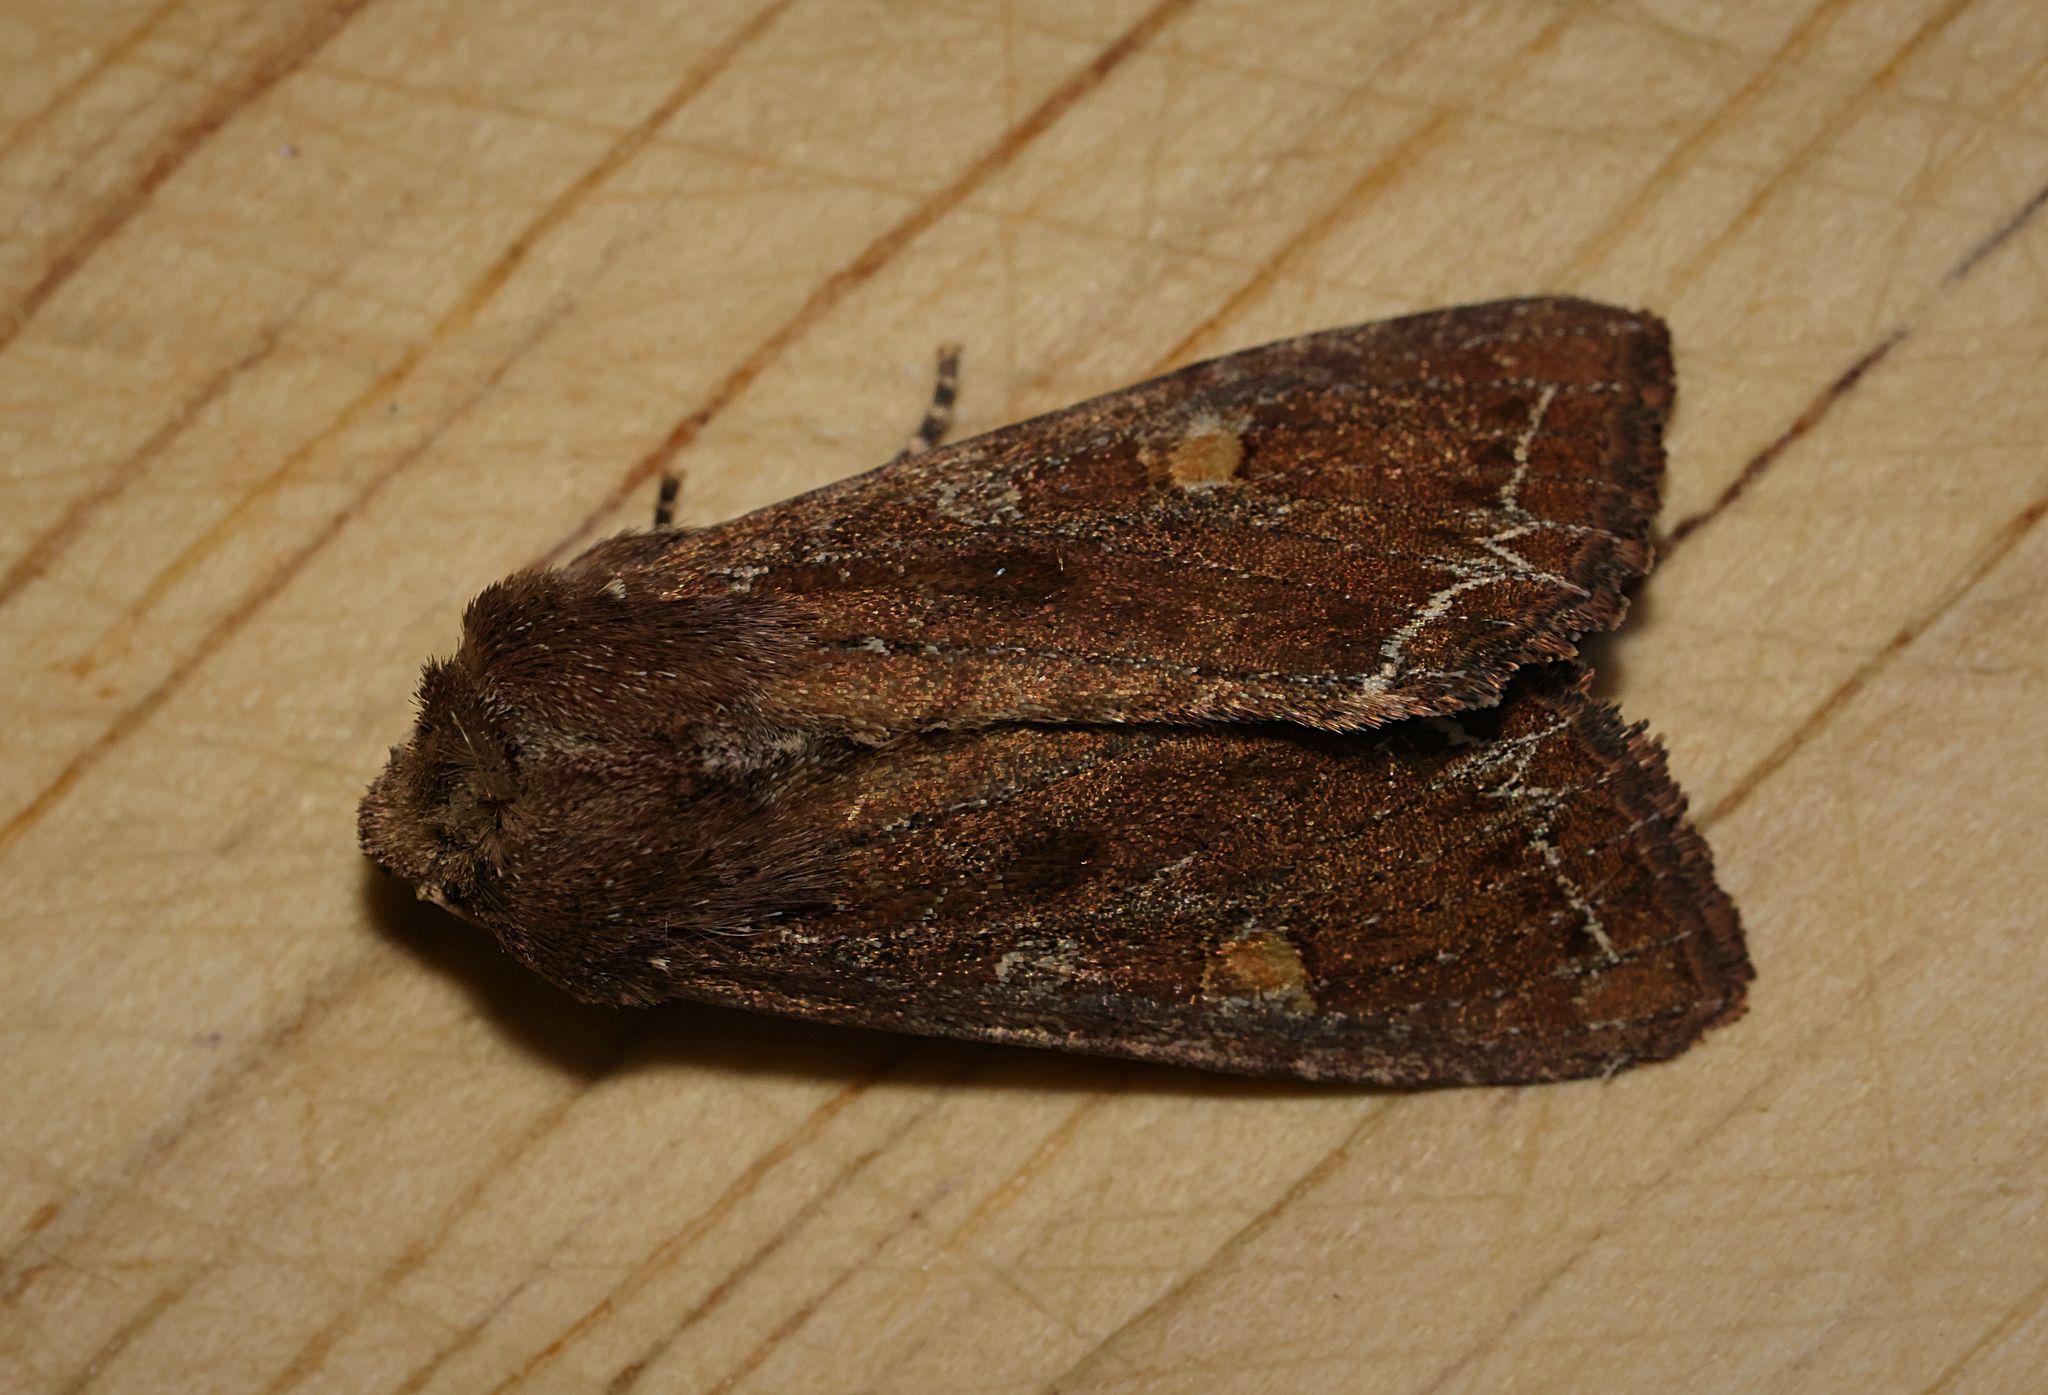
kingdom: Animalia
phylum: Arthropoda
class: Insecta
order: Lepidoptera
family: Noctuidae
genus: Lacanobia
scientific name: Lacanobia oleracea
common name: Bright-line brown-eye
